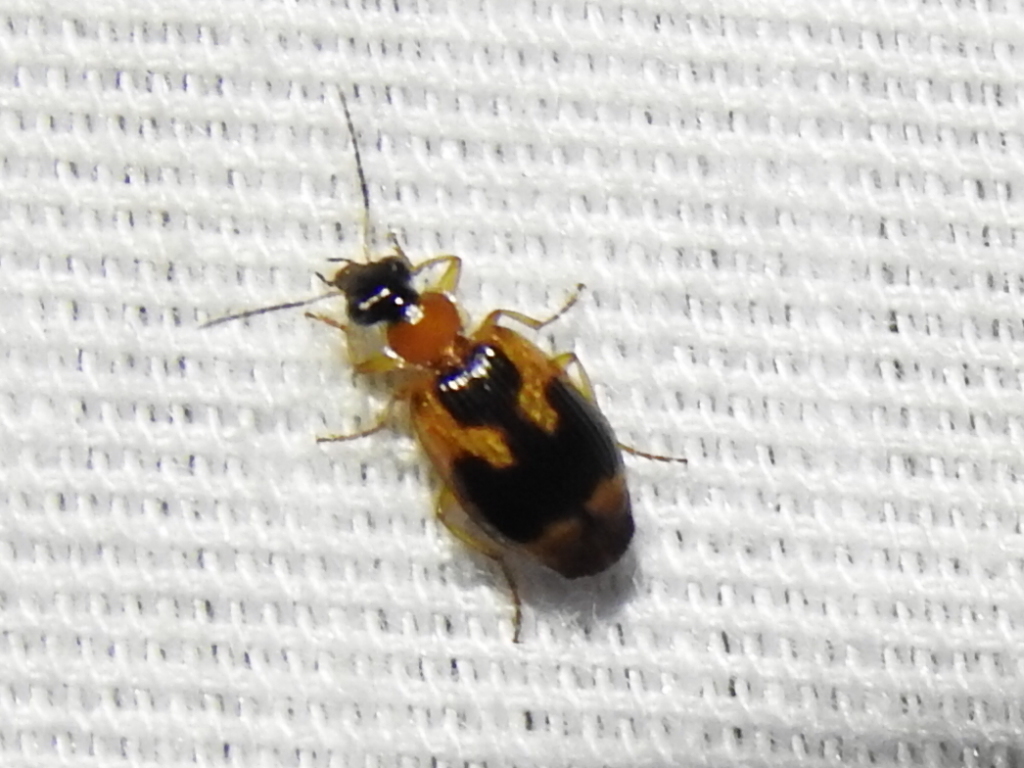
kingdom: Animalia
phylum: Arthropoda
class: Insecta
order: Coleoptera
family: Carabidae
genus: Lebia
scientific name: Lebia analis
